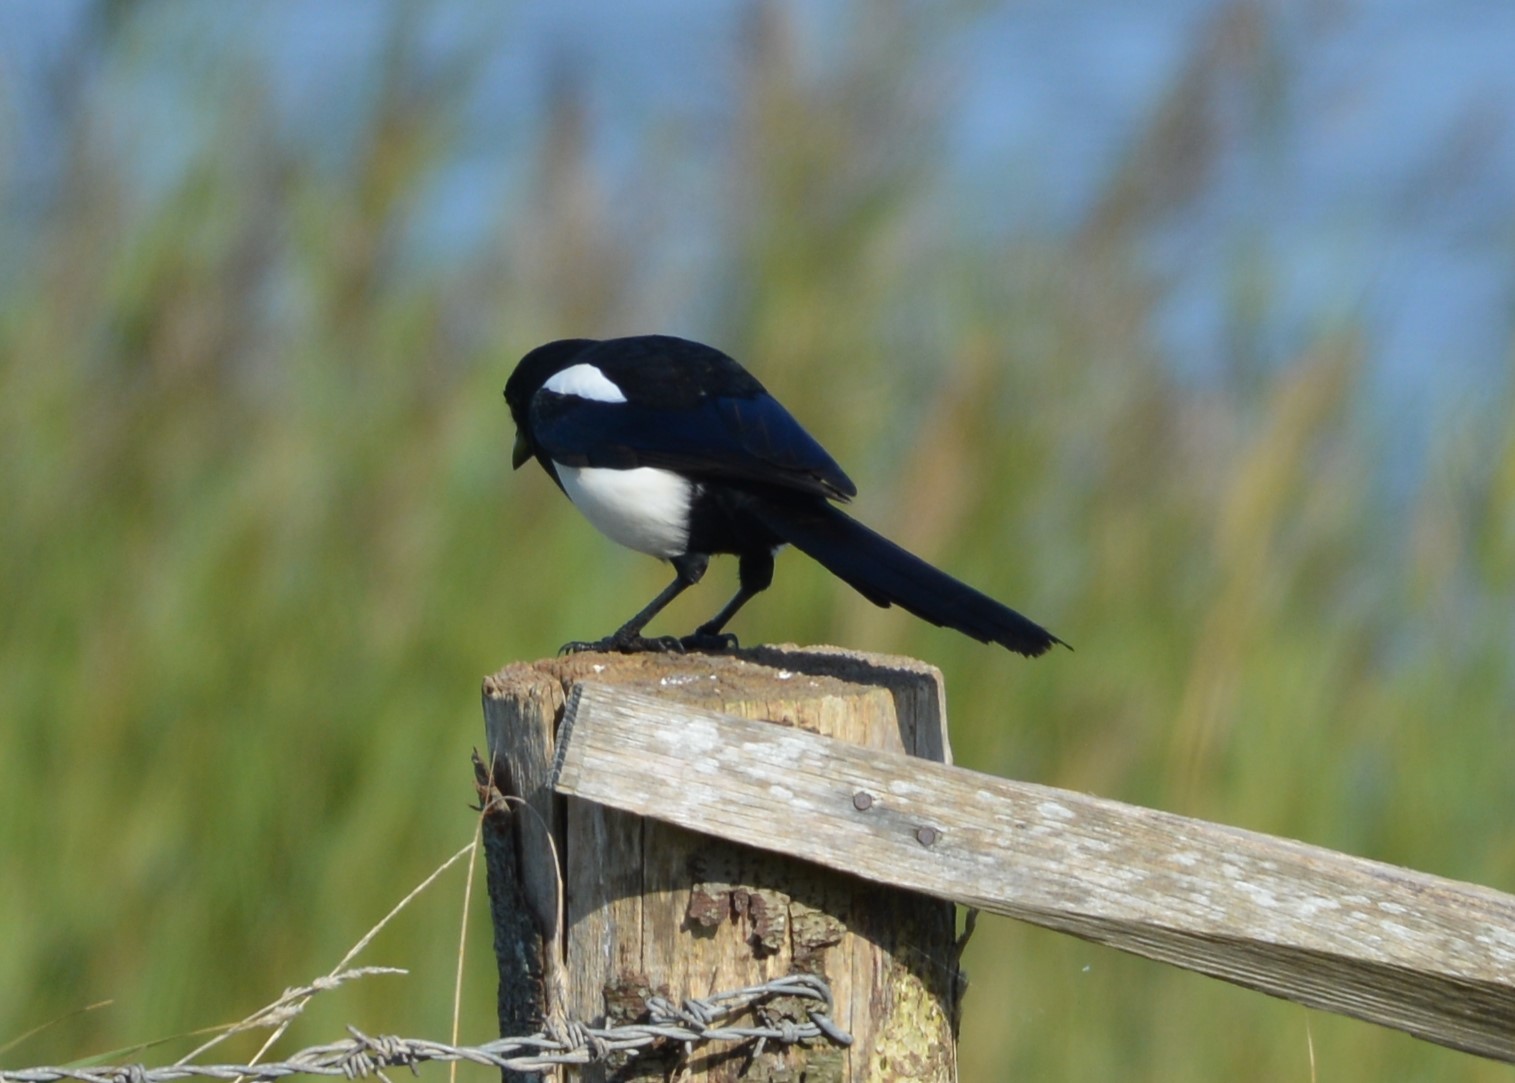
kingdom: Animalia
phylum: Chordata
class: Aves
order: Passeriformes
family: Corvidae
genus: Pica
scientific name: Pica pica
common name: Eurasian magpie
